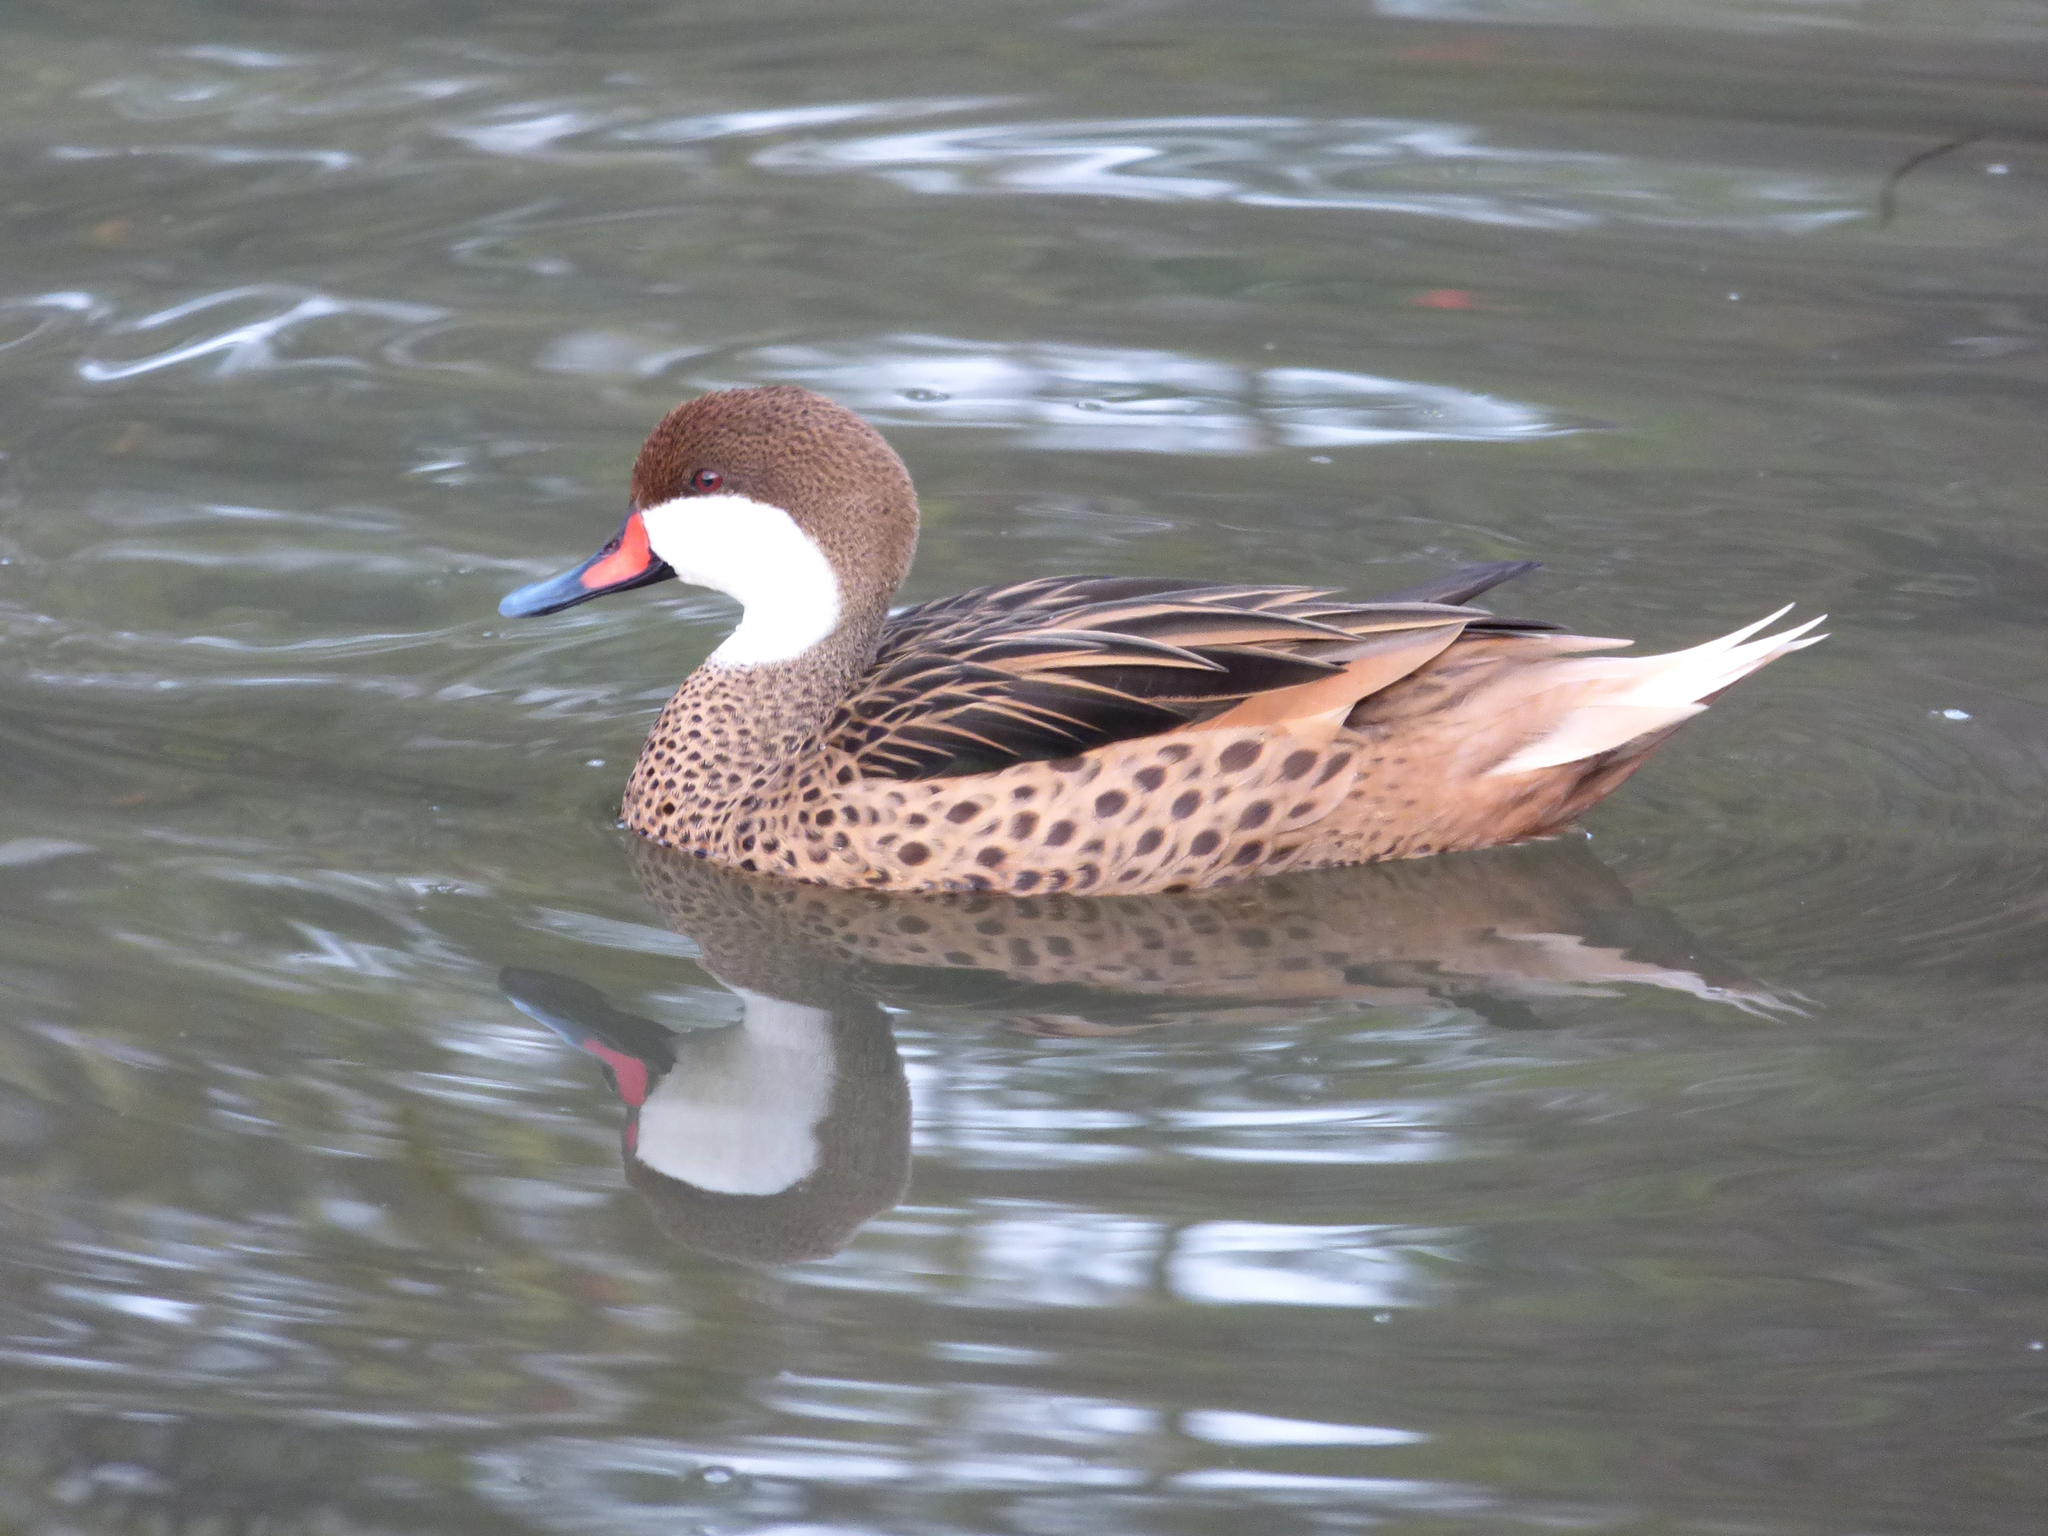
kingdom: Animalia
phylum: Chordata
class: Aves
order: Anseriformes
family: Anatidae
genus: Anas
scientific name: Anas bahamensis
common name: White-cheeked pintail
